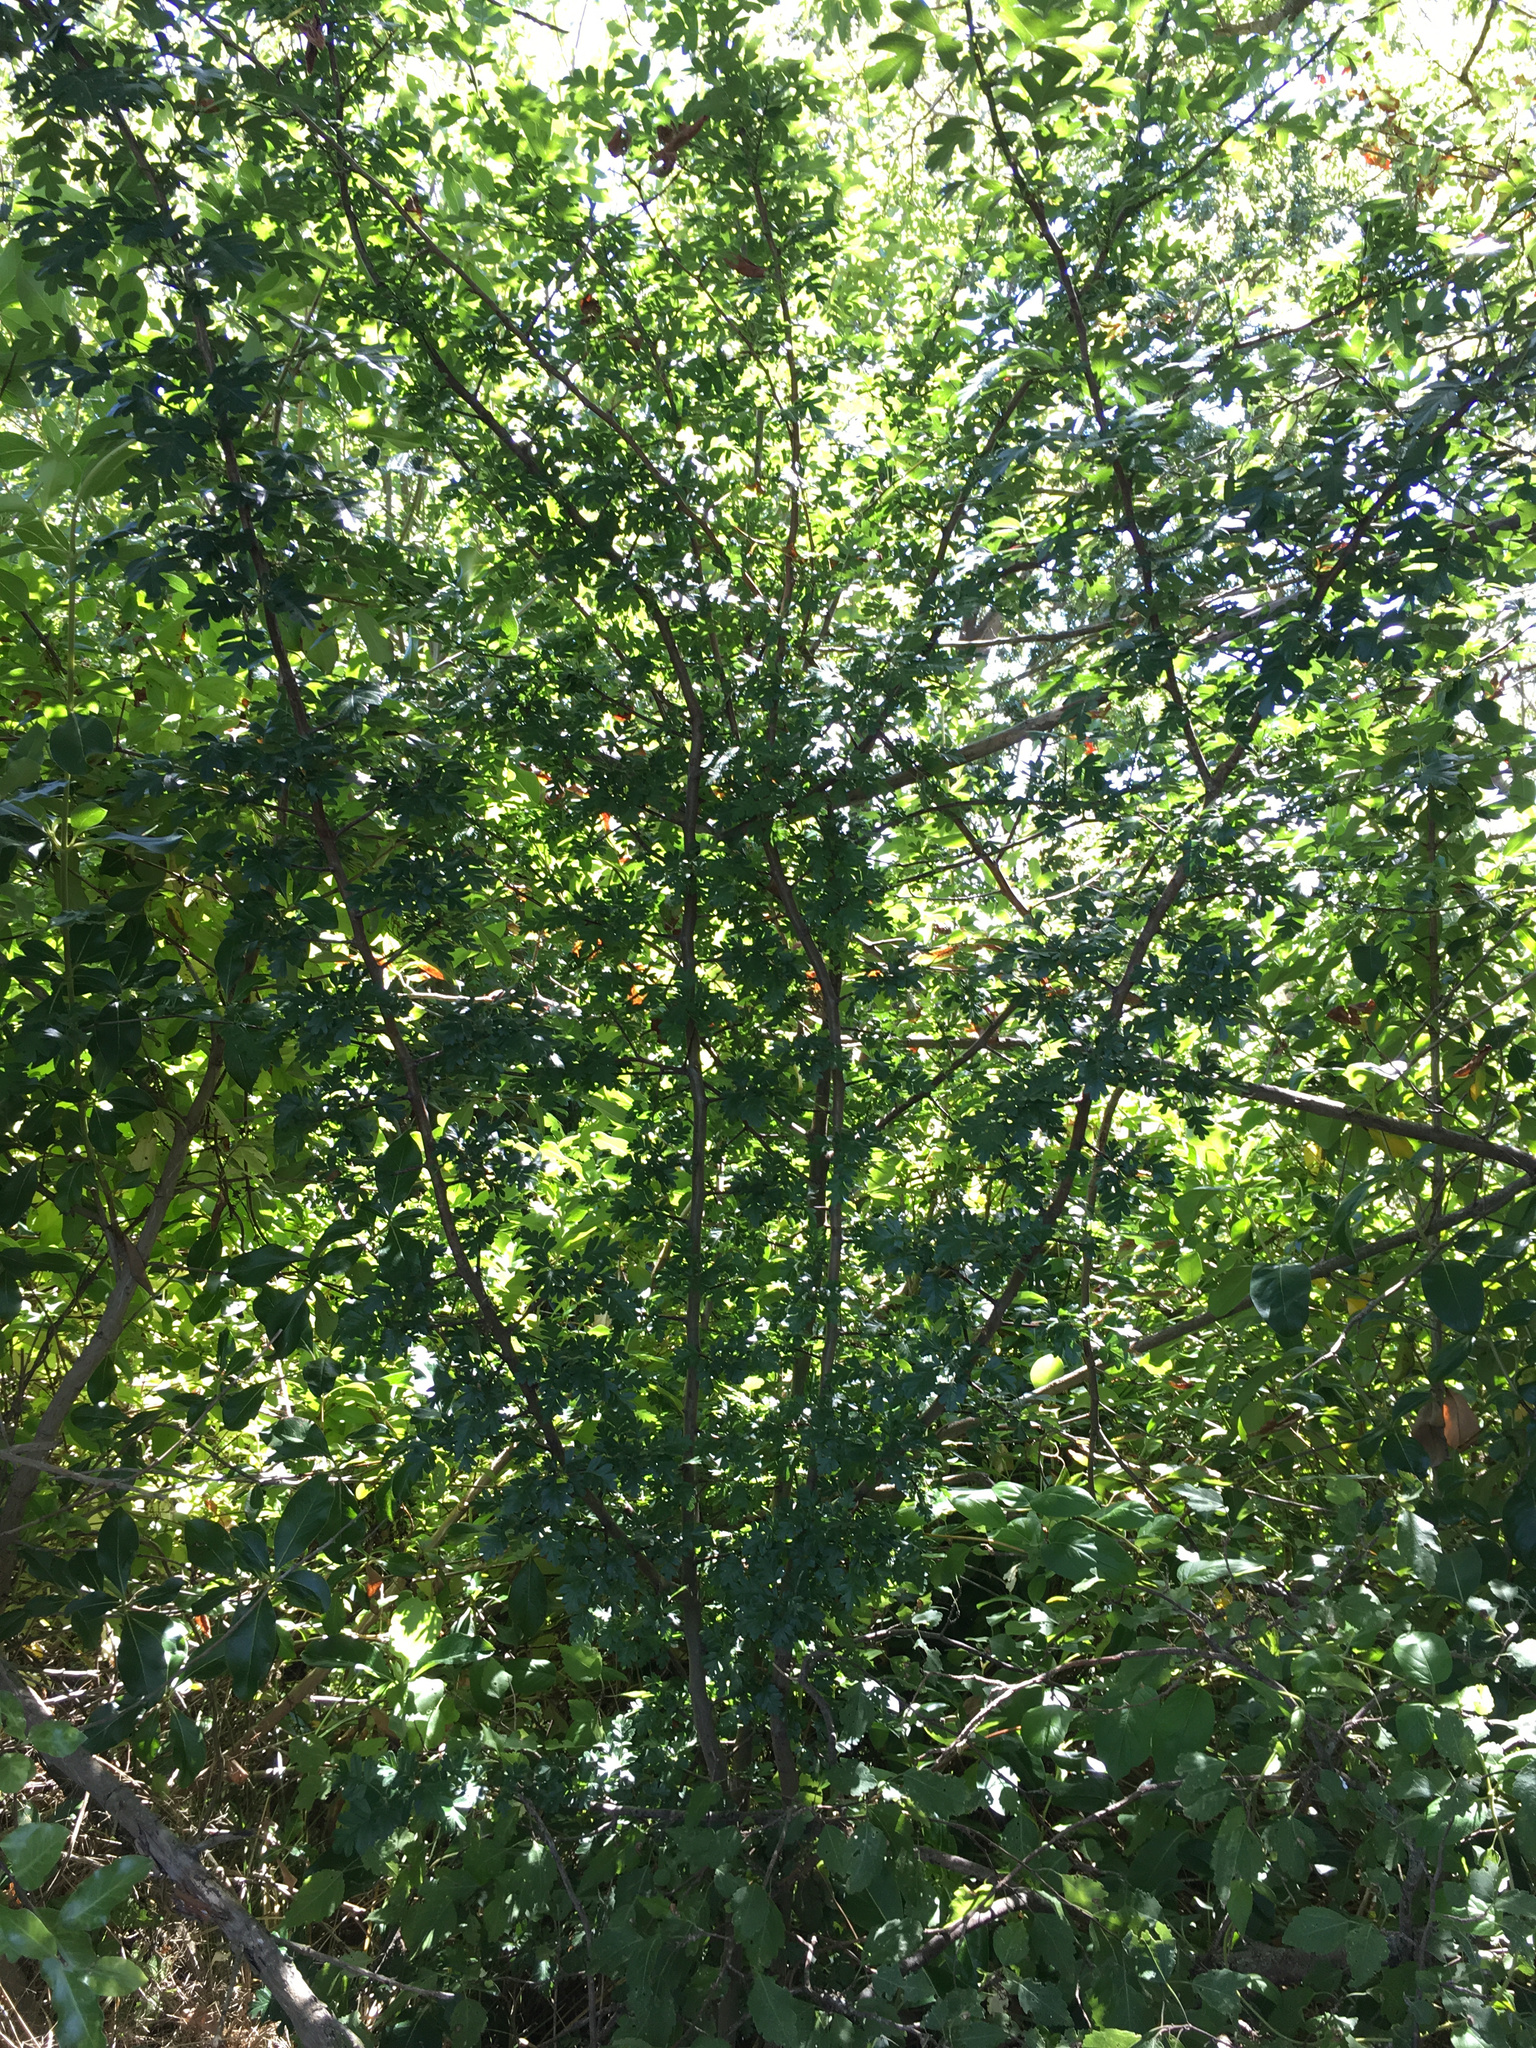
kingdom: Plantae
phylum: Tracheophyta
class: Magnoliopsida
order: Rosales
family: Rosaceae
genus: Crataegus
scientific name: Crataegus monogyna
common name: Hawthorn
